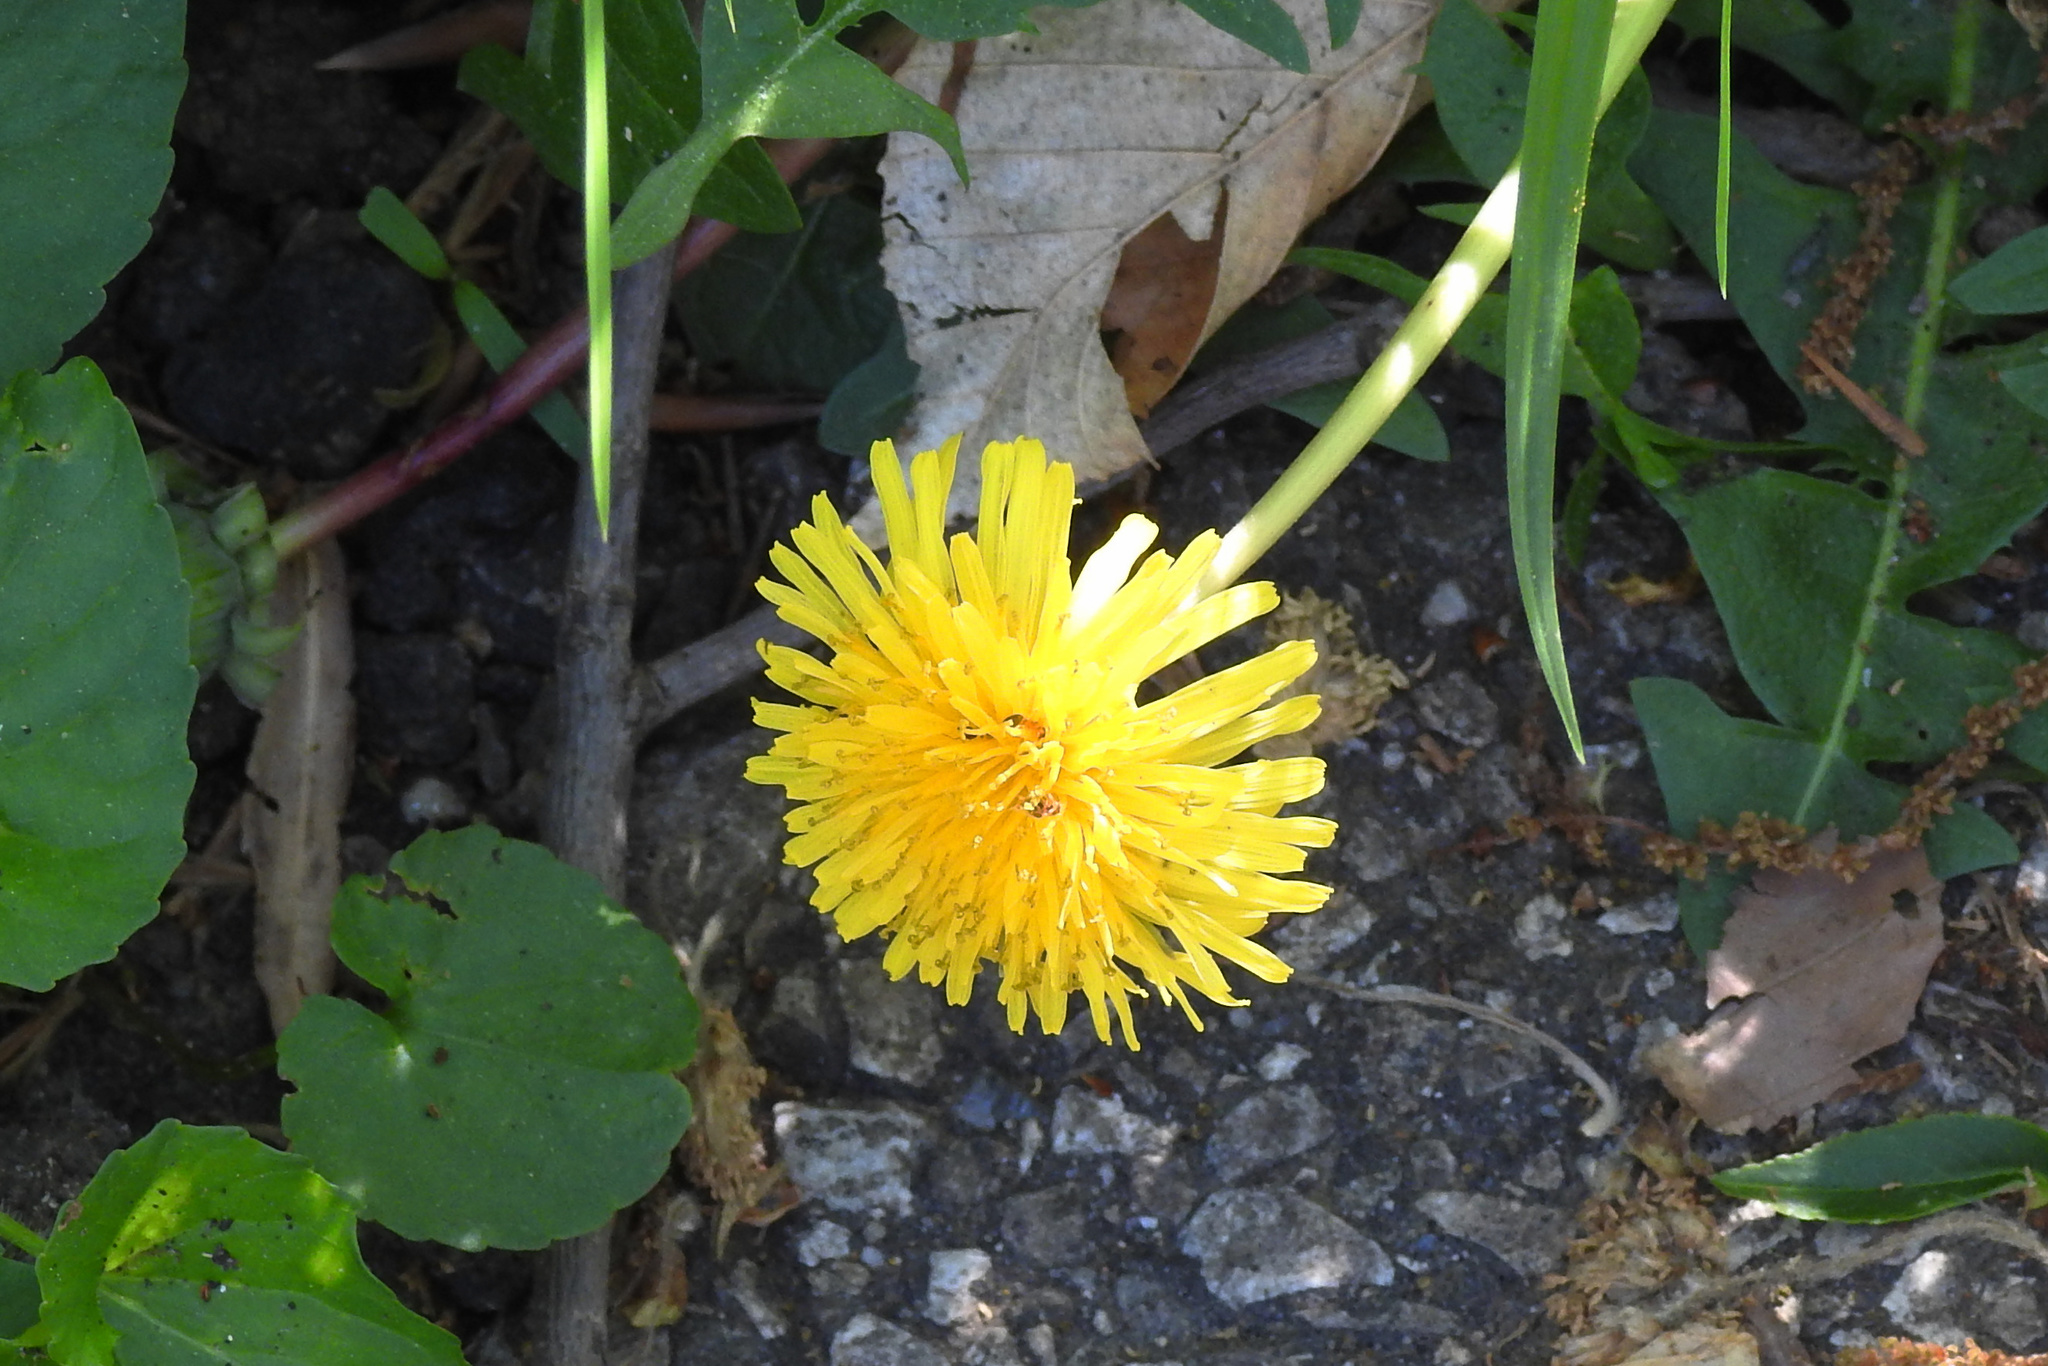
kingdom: Plantae
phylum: Tracheophyta
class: Magnoliopsida
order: Asterales
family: Asteraceae
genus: Taraxacum
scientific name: Taraxacum officinale
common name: Common dandelion
